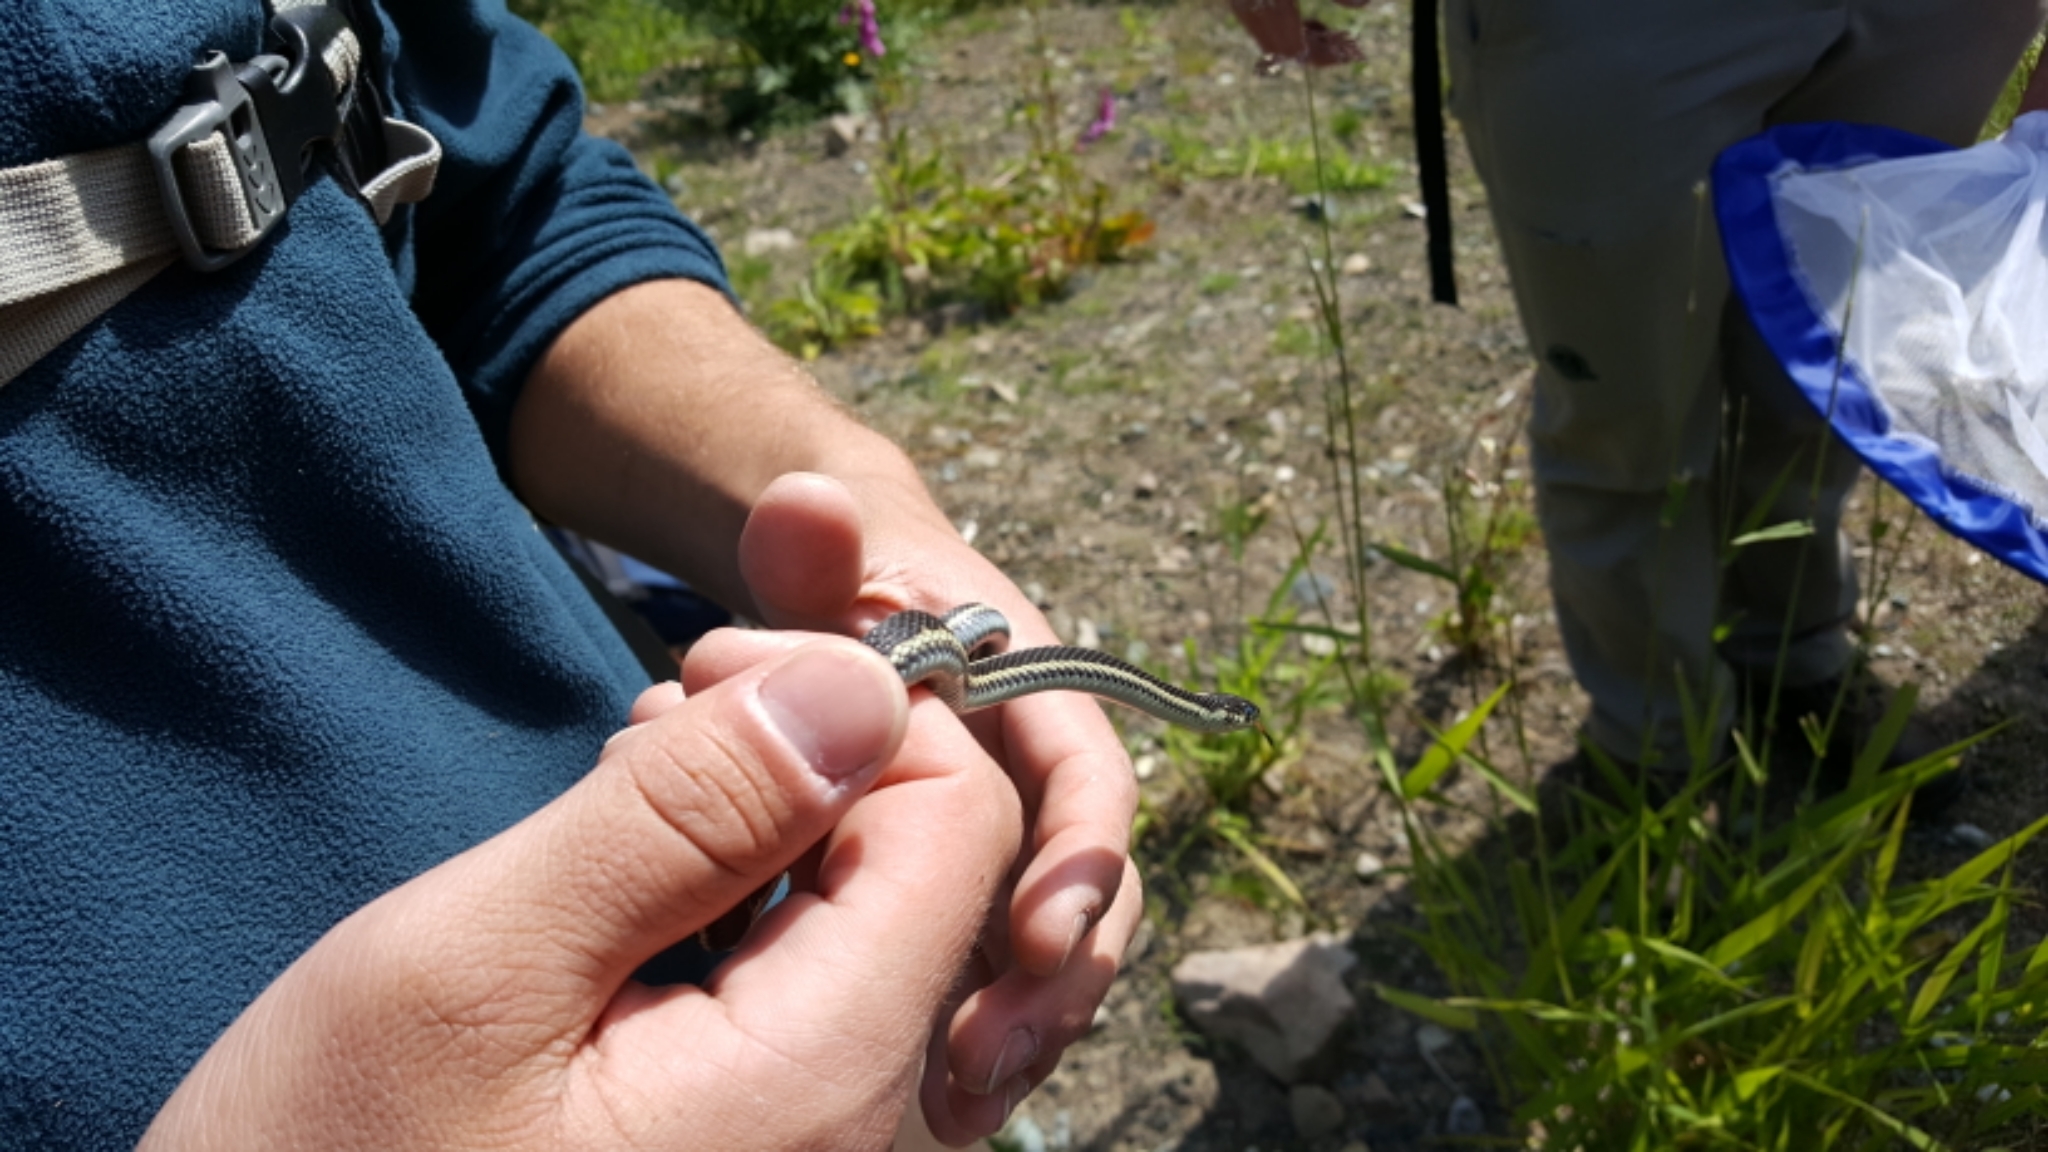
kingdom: Animalia
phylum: Chordata
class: Squamata
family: Colubridae
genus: Thamnophis
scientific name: Thamnophis sirtalis
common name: Common garter snake
